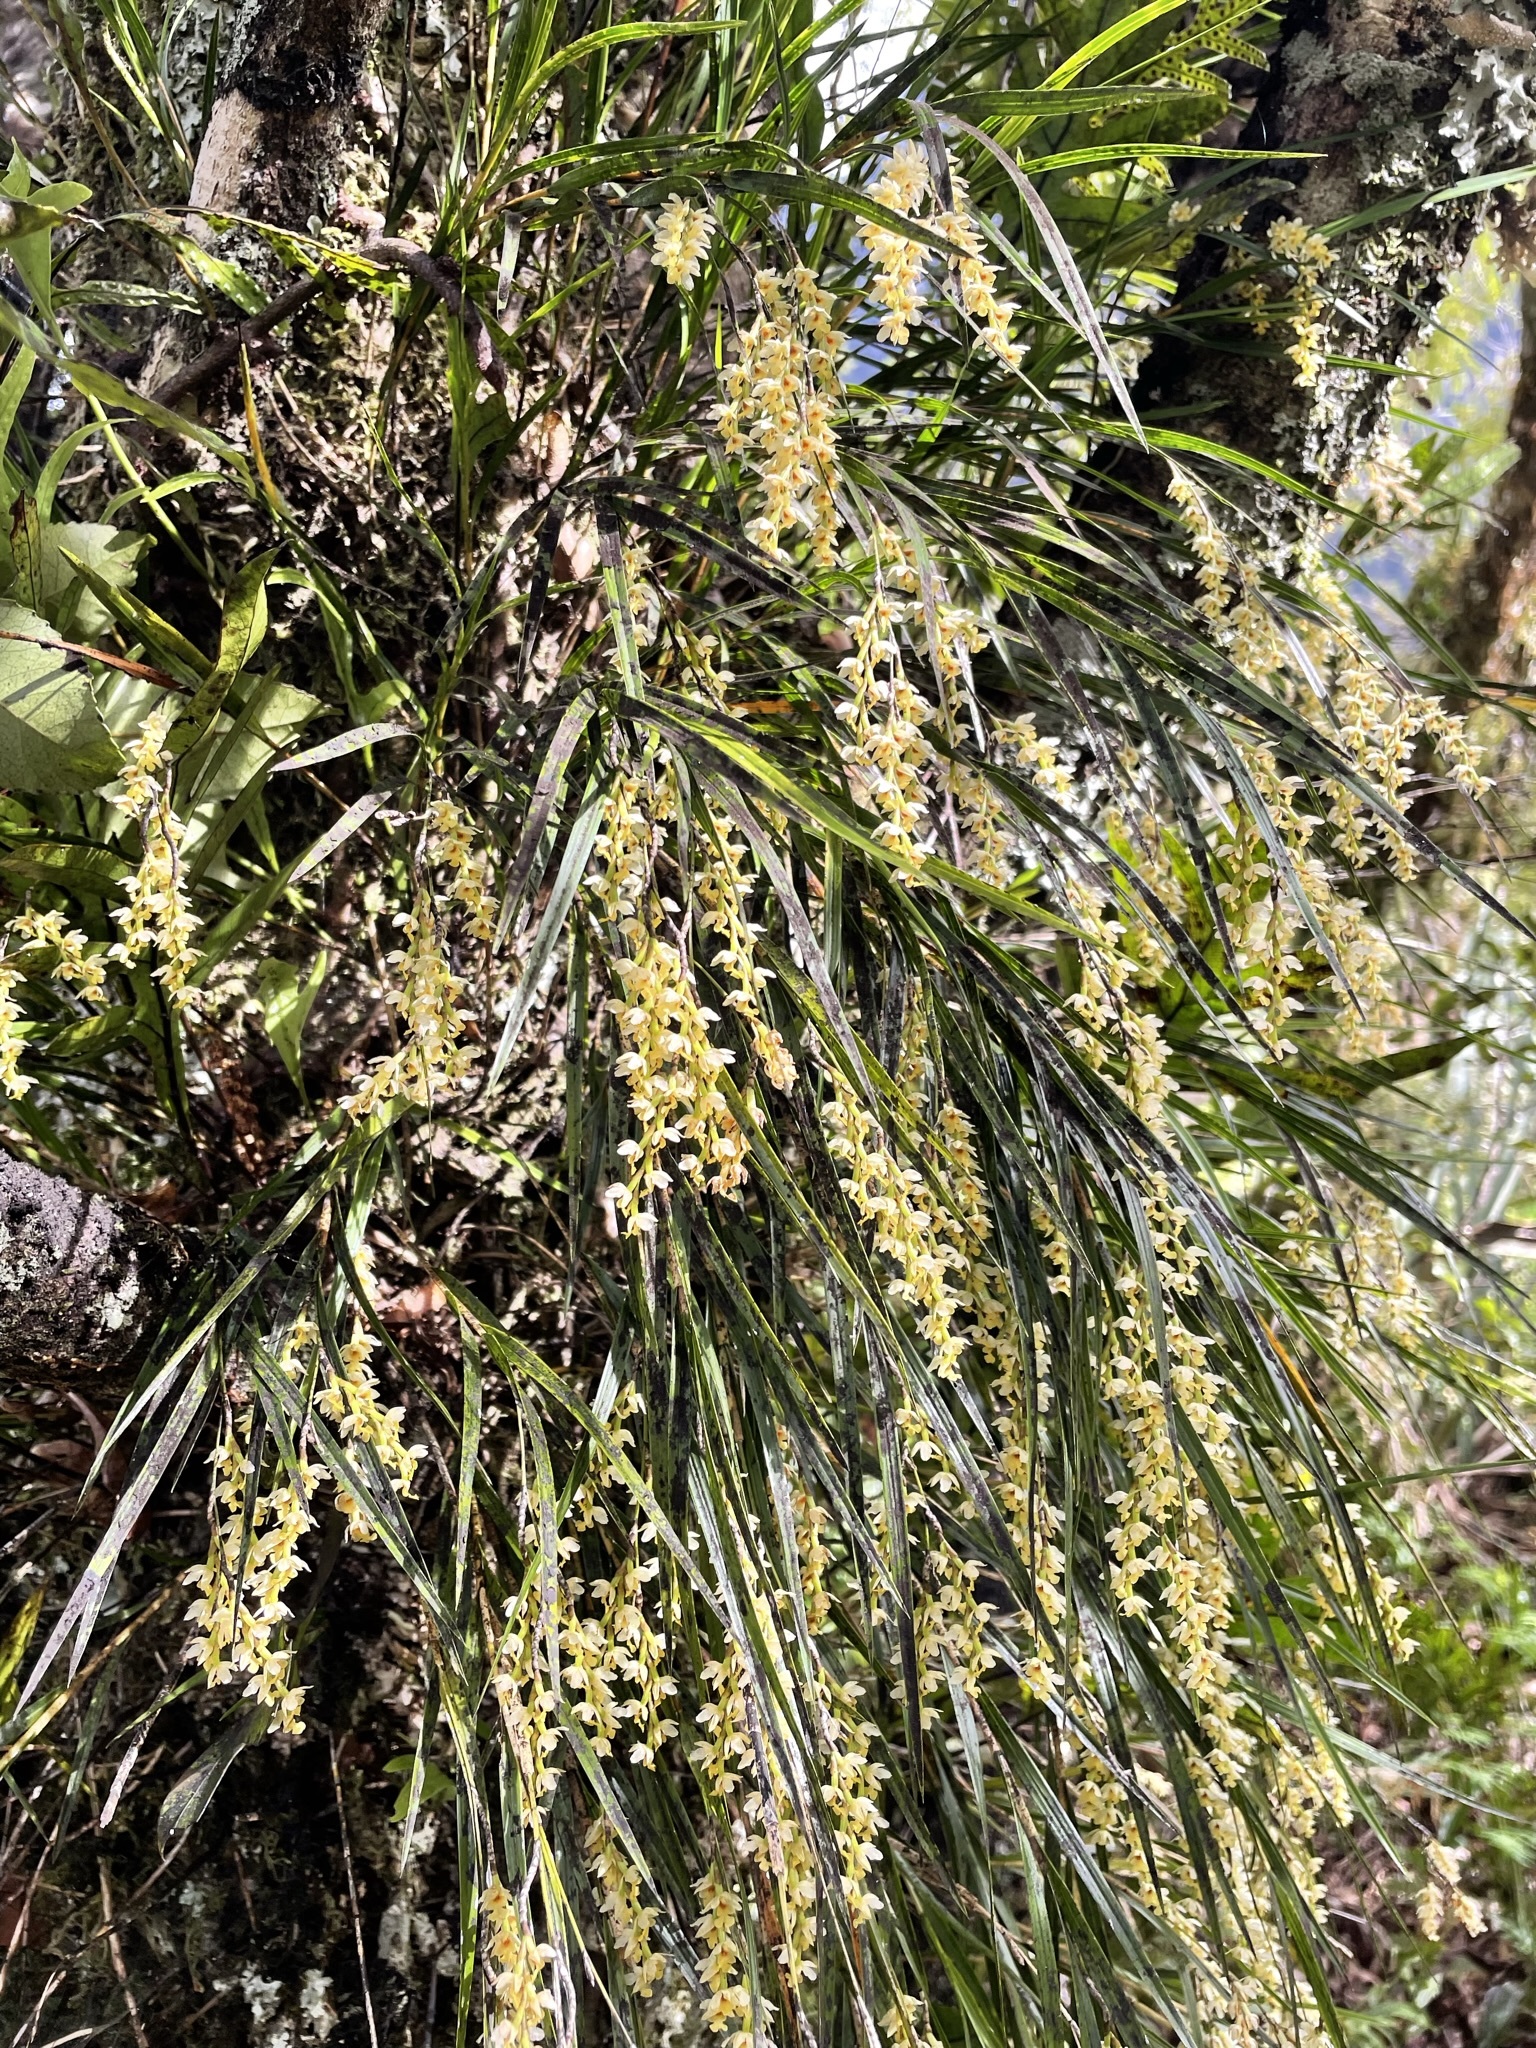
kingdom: Plantae
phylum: Tracheophyta
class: Liliopsida
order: Asparagales
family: Orchidaceae
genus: Earina
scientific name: Earina mucronata
